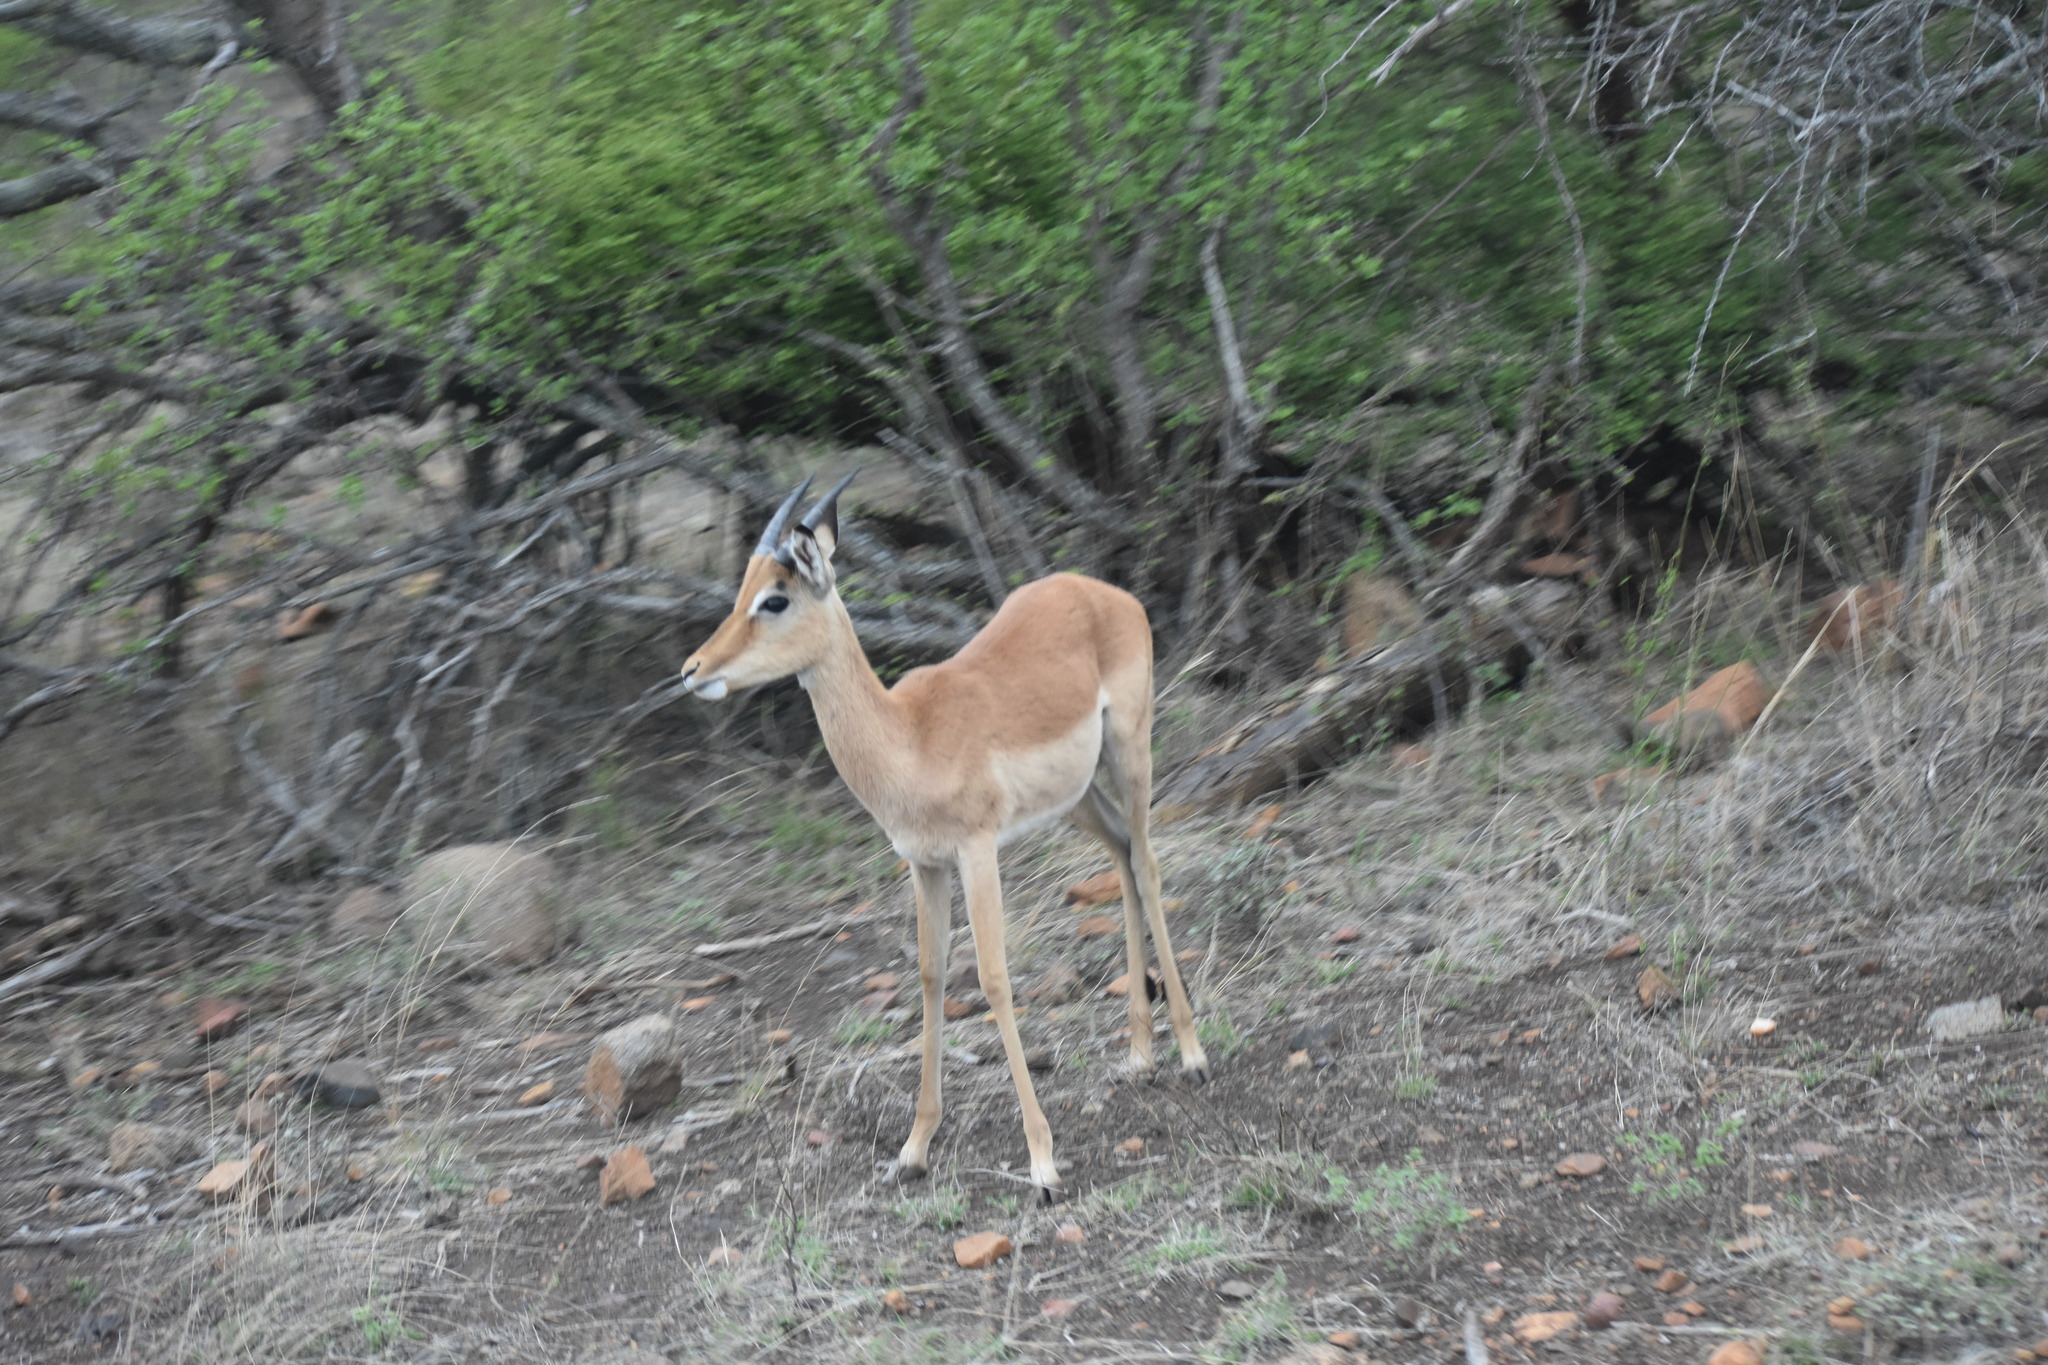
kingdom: Animalia
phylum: Chordata
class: Mammalia
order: Artiodactyla
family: Bovidae
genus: Aepyceros
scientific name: Aepyceros melampus
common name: Impala
